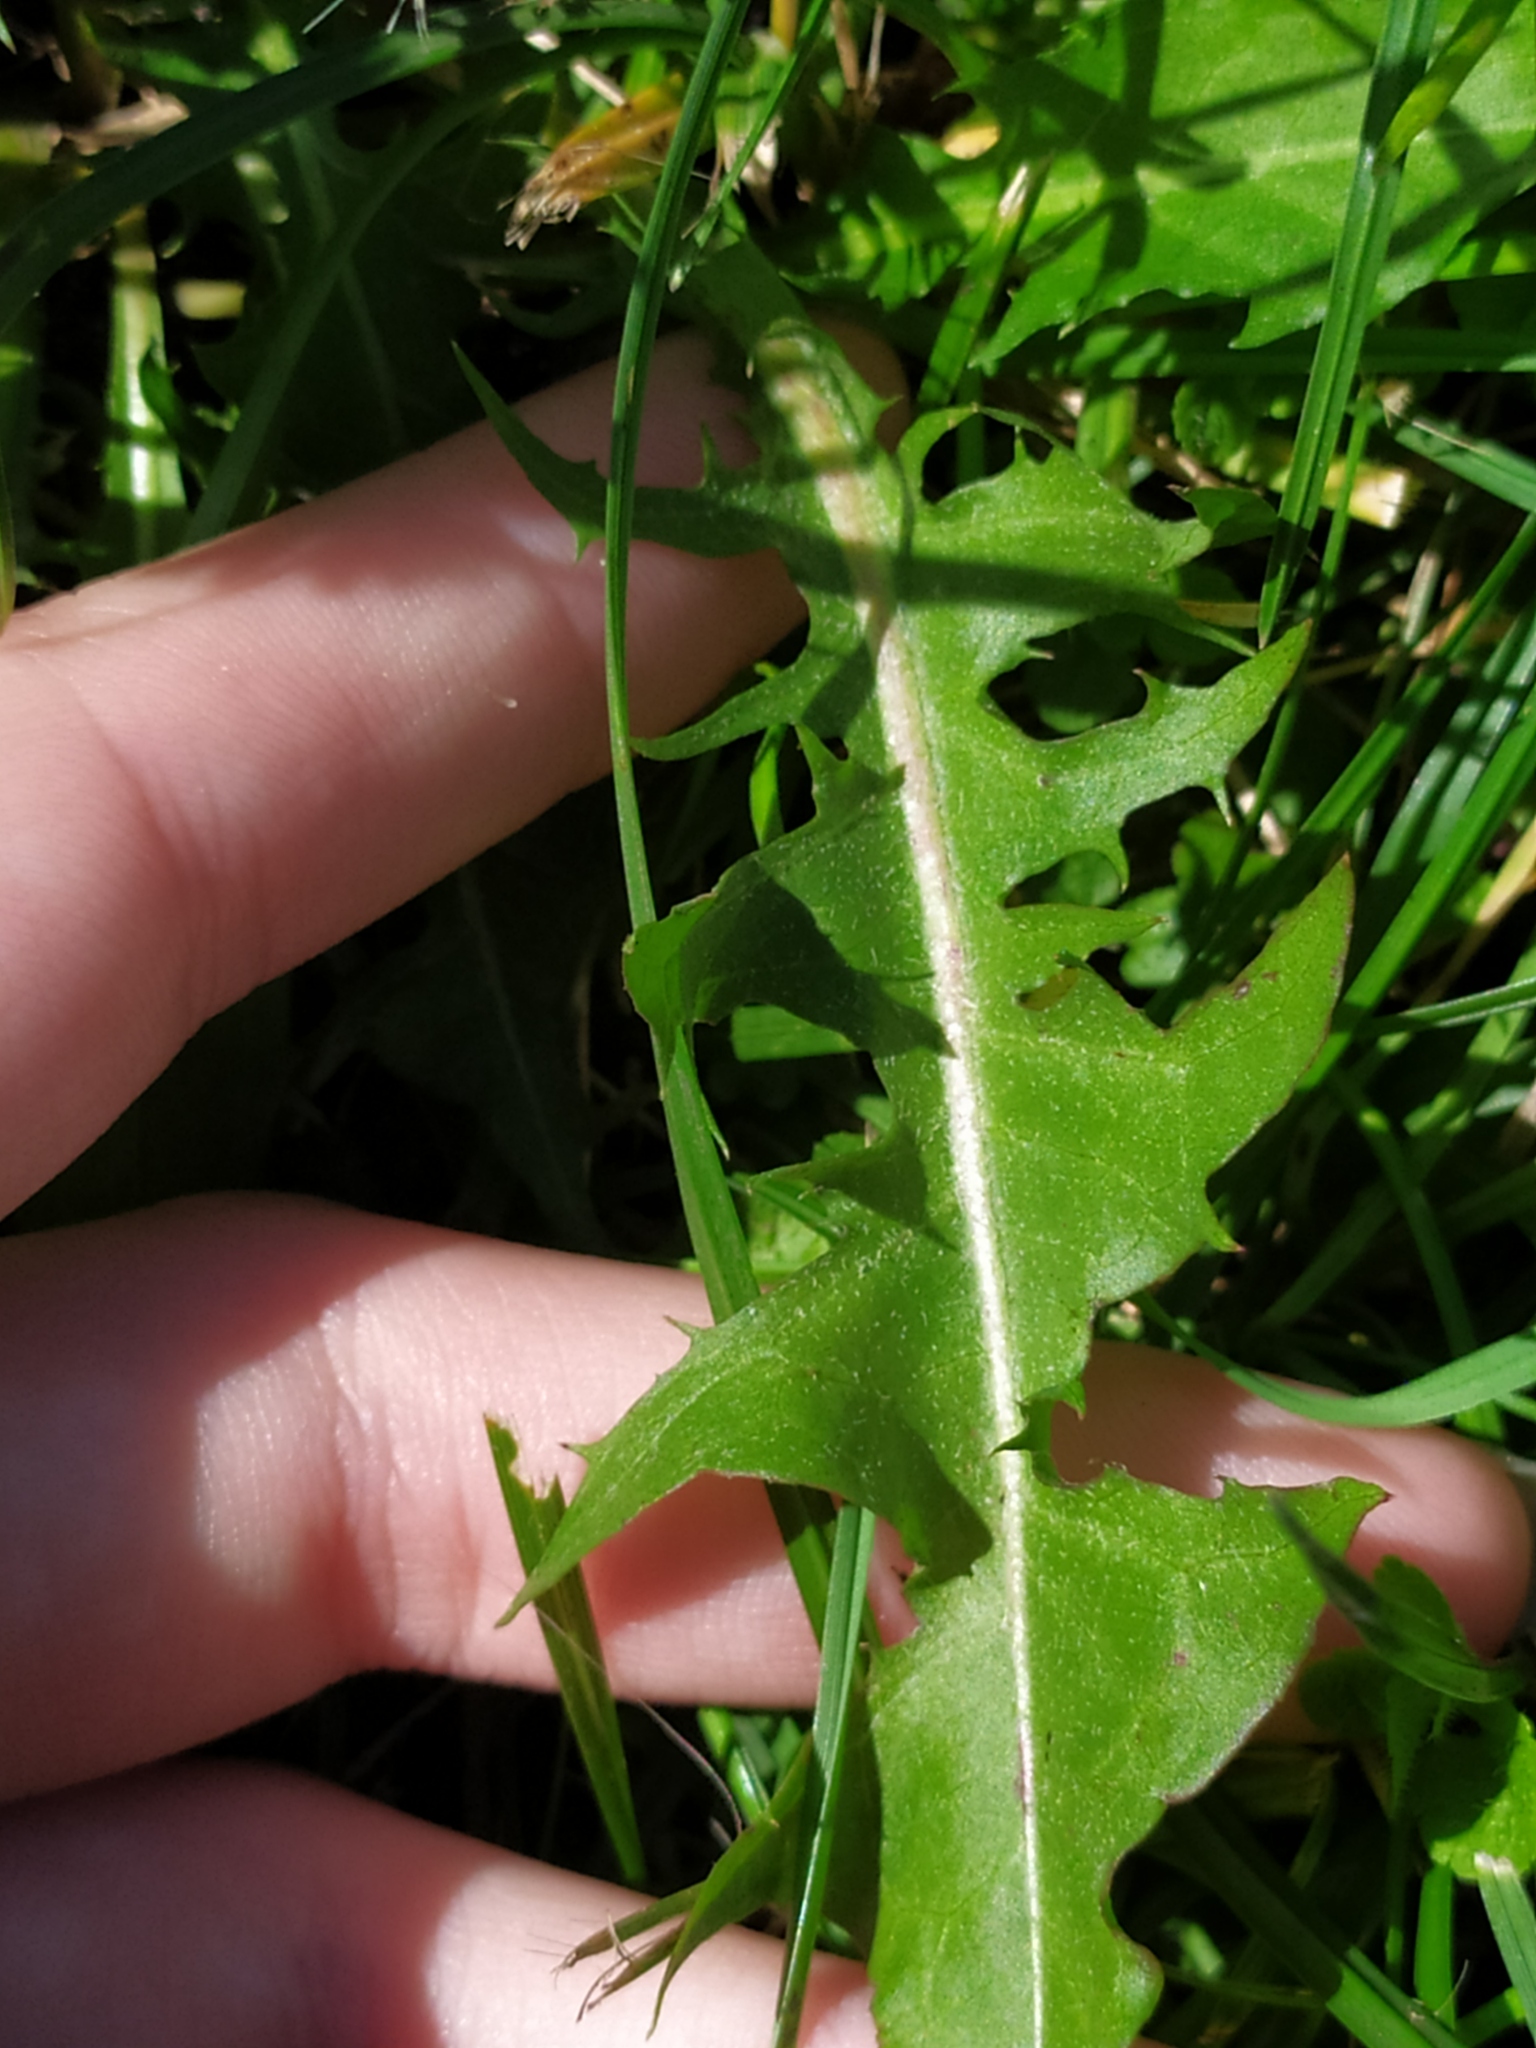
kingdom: Plantae
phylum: Tracheophyta
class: Magnoliopsida
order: Asterales
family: Asteraceae
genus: Taraxacum
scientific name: Taraxacum officinale
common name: Common dandelion
